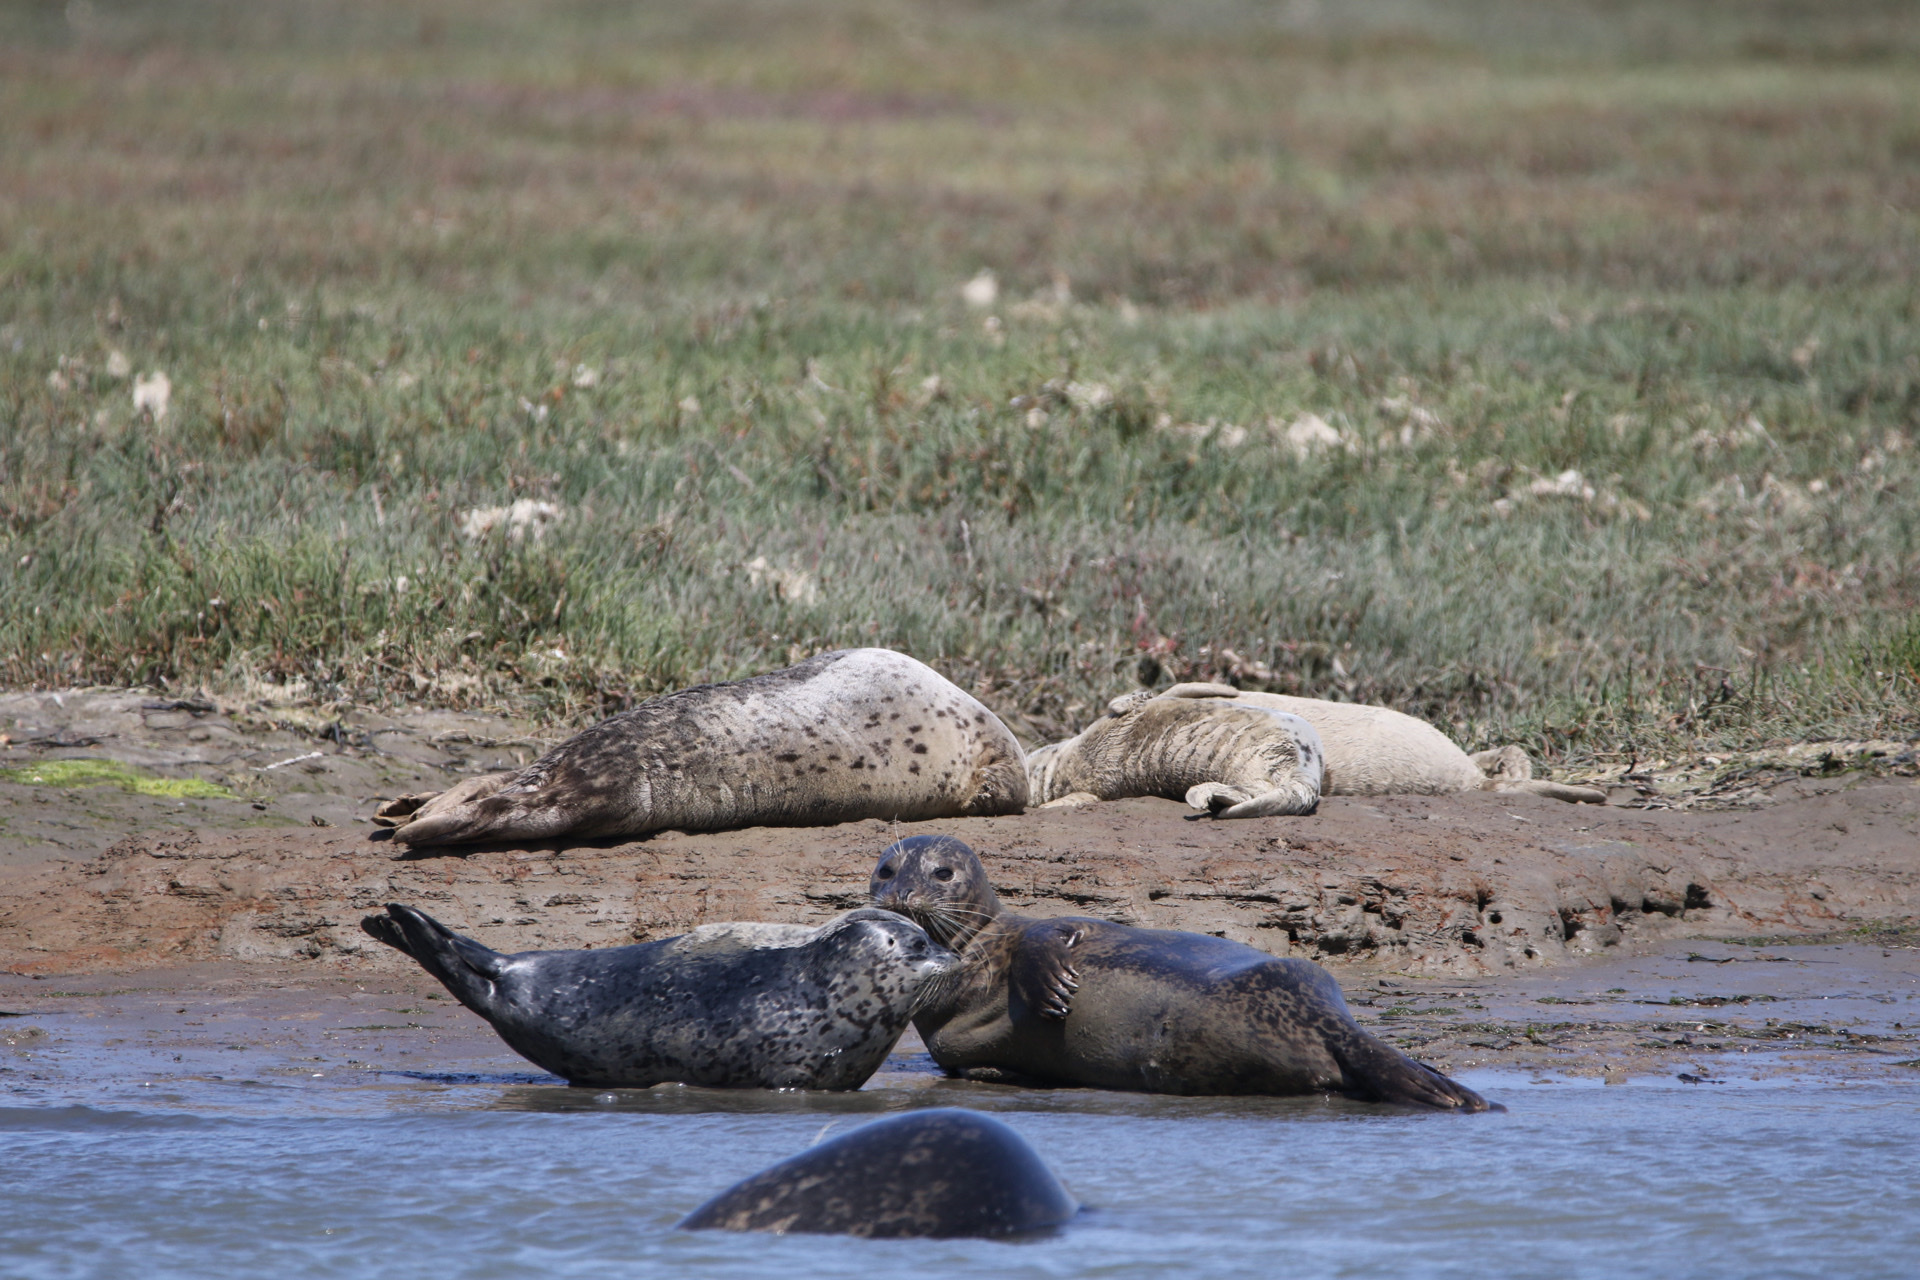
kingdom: Animalia
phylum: Chordata
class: Mammalia
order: Carnivora
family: Phocidae
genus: Phoca
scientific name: Phoca vitulina
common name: Harbor seal
